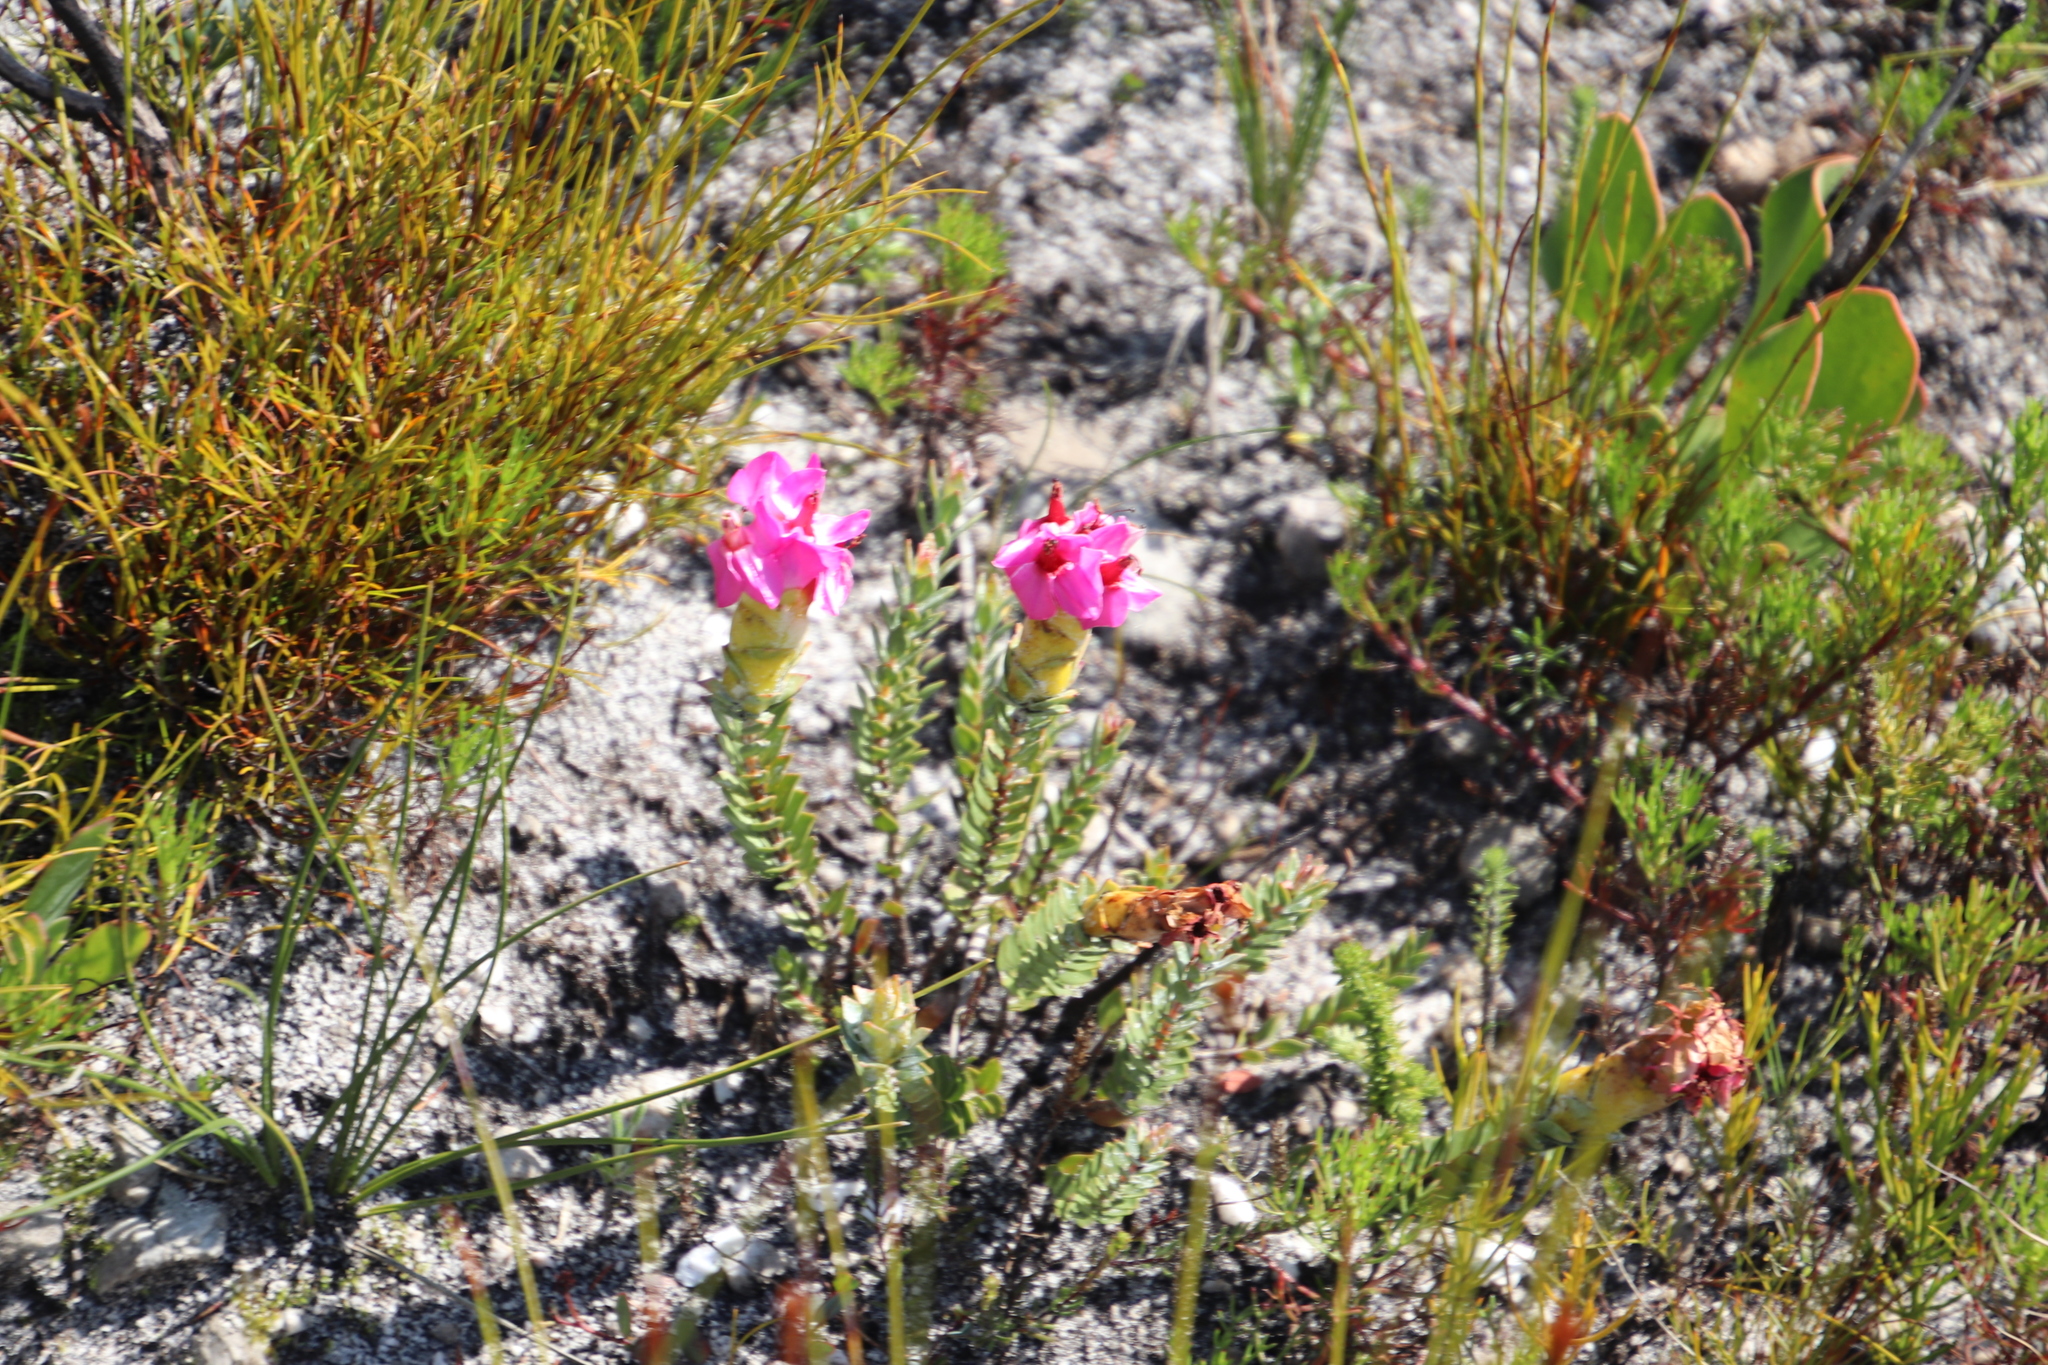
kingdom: Plantae
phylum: Tracheophyta
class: Magnoliopsida
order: Myrtales
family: Penaeaceae
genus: Saltera
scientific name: Saltera sarcocolla
